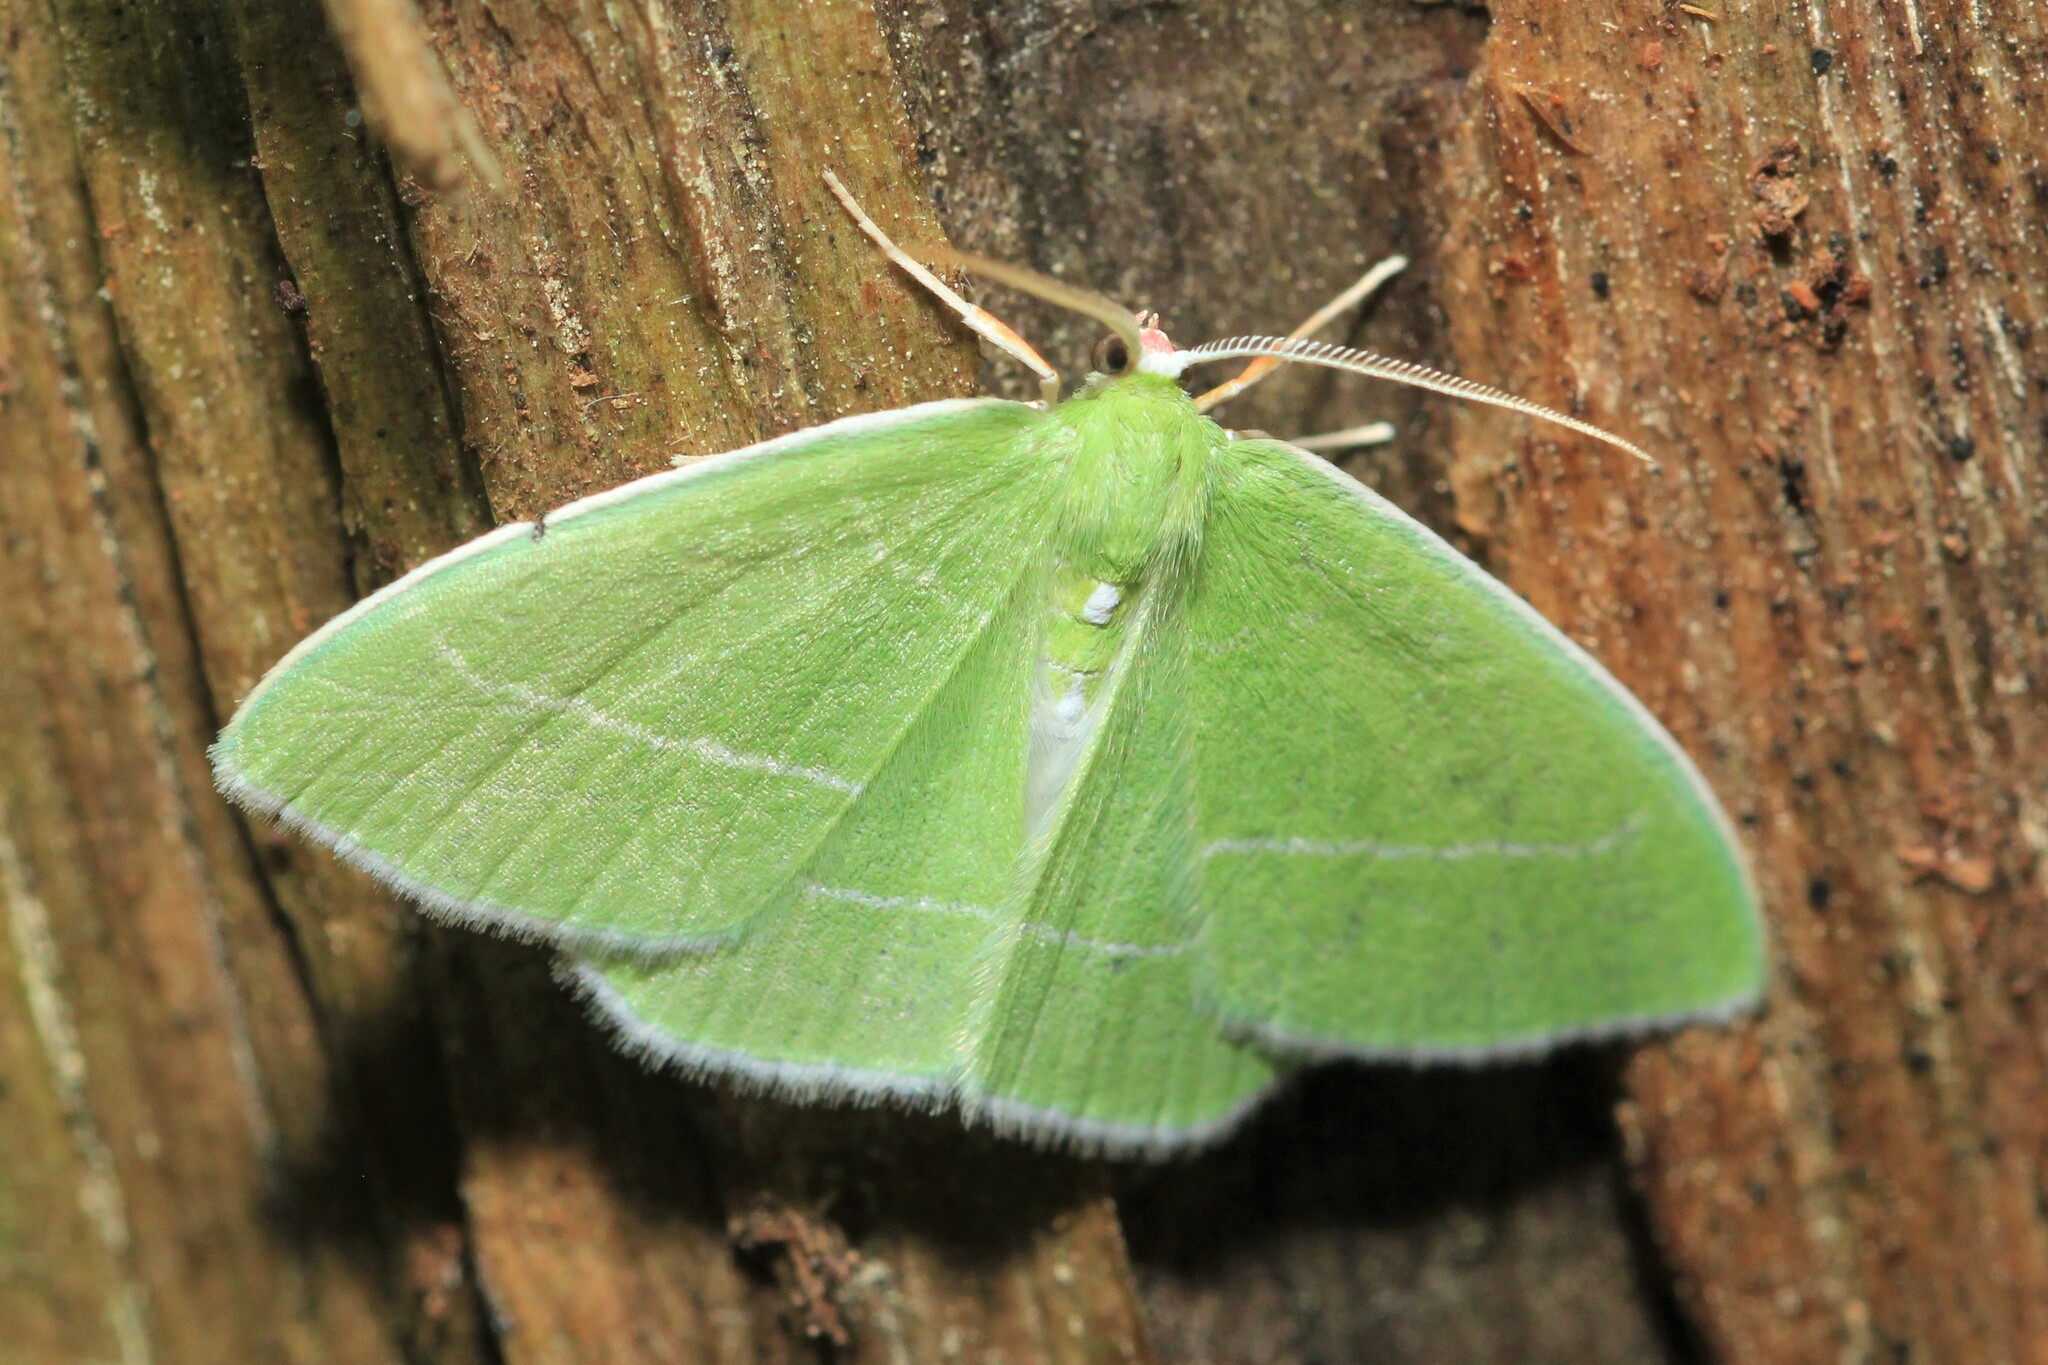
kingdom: Animalia
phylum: Arthropoda
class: Insecta
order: Lepidoptera
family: Geometridae
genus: Nemoria
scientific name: Nemoria mimosaria
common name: White-fringed emerald
